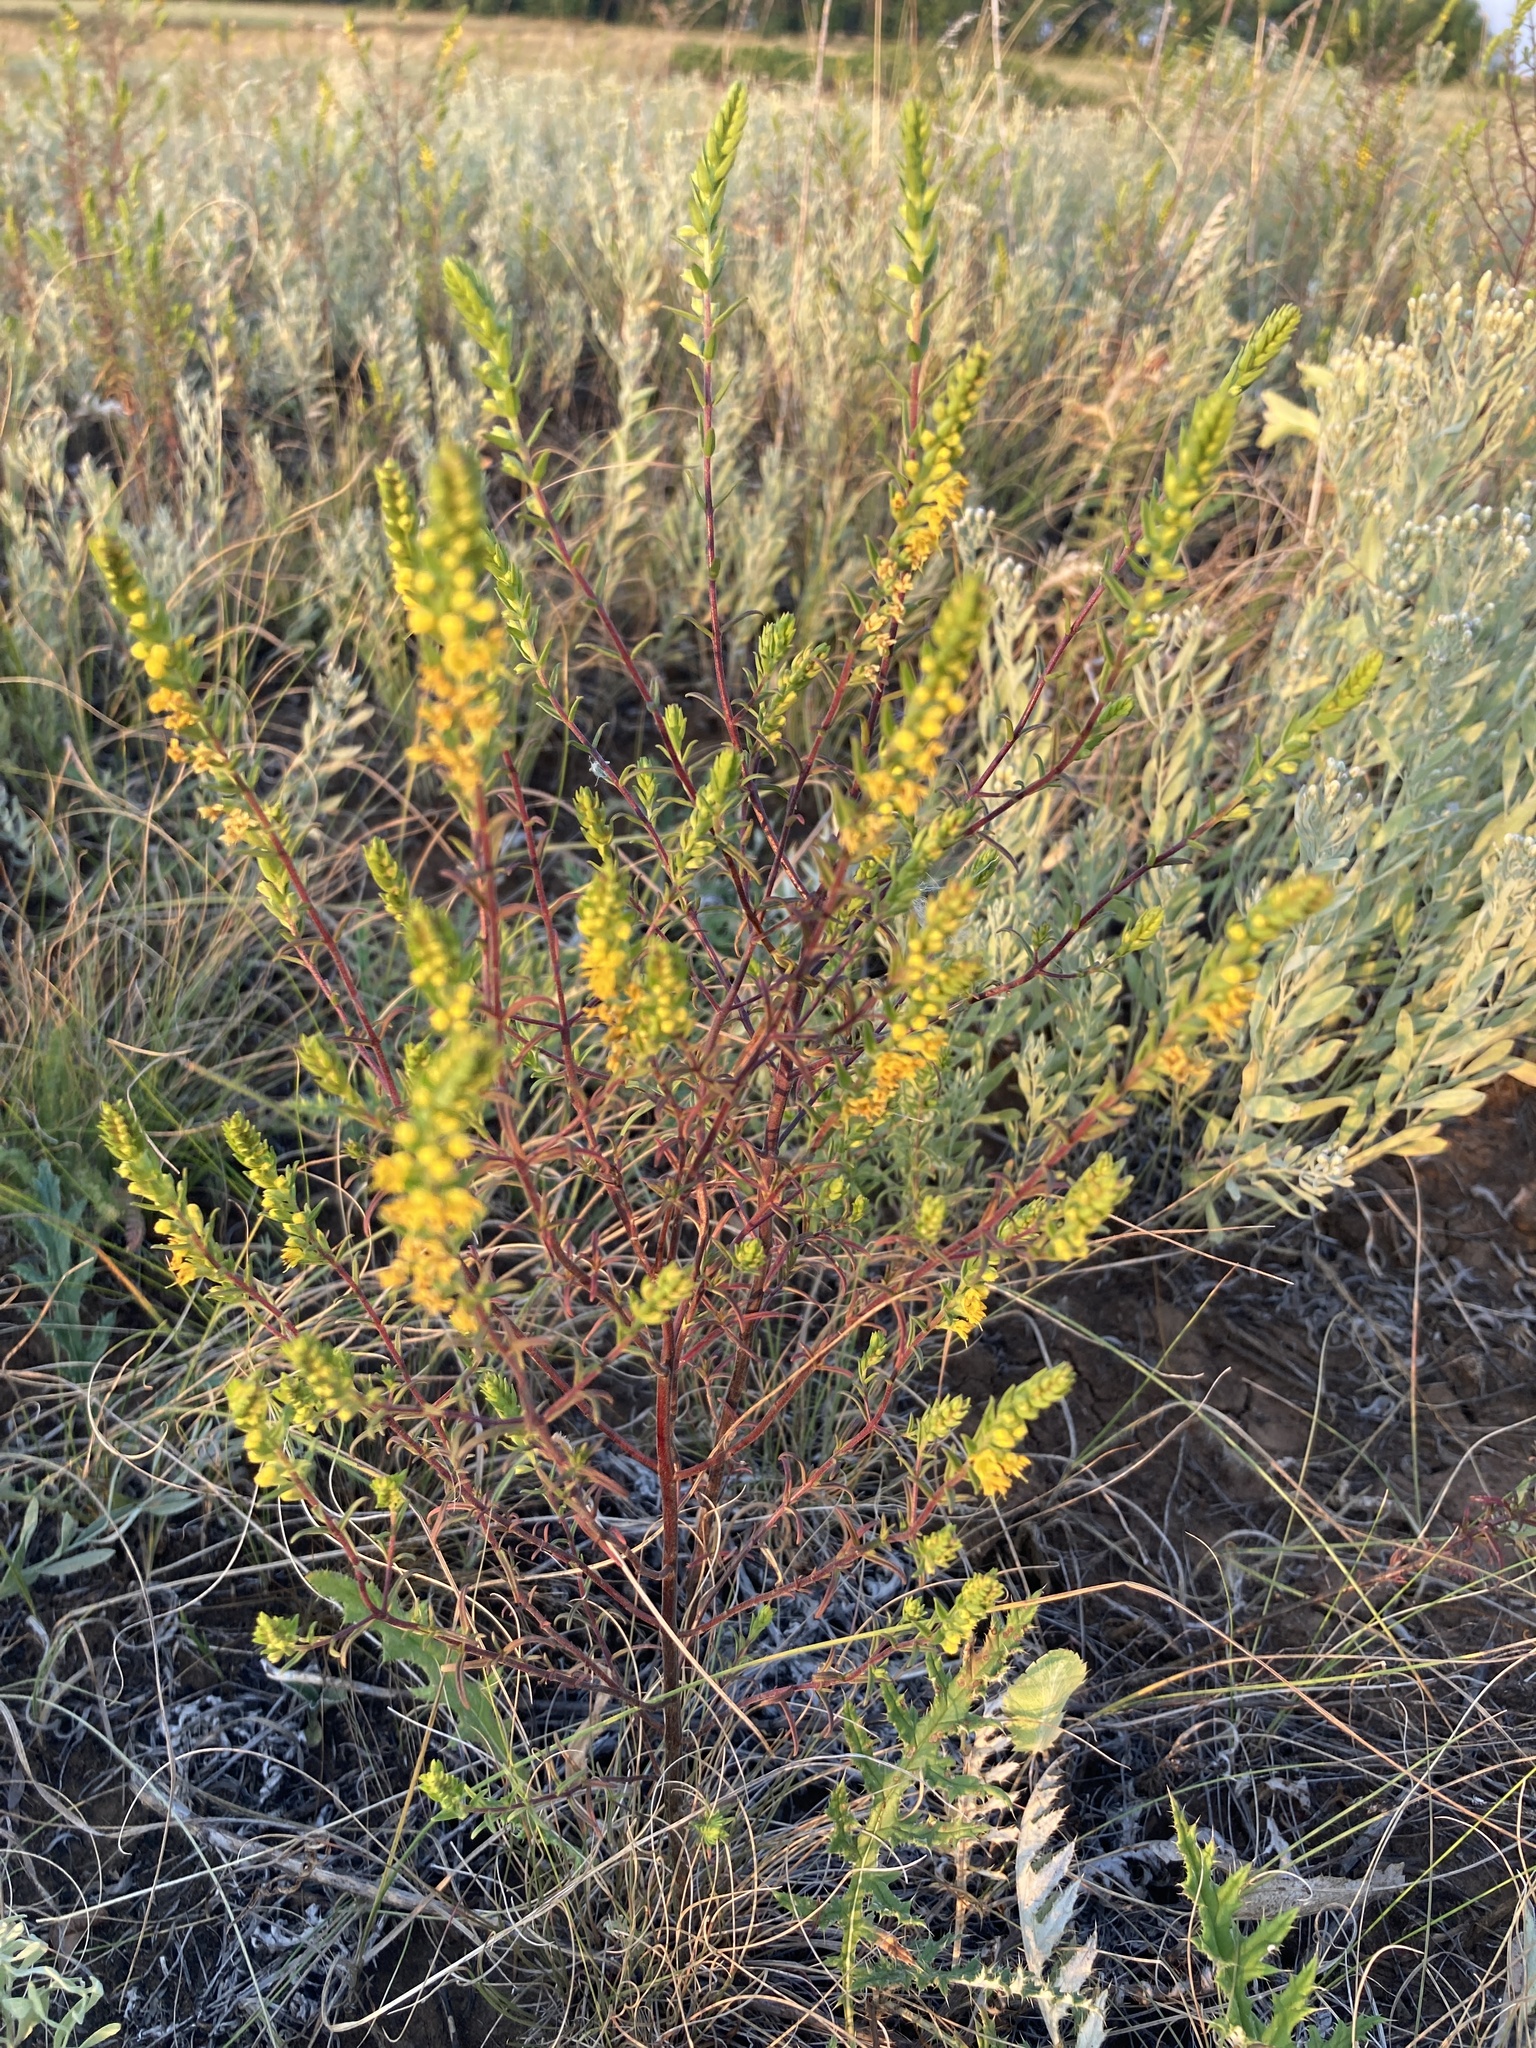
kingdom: Plantae
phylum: Tracheophyta
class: Magnoliopsida
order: Lamiales
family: Orobanchaceae
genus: Odontites
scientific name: Odontites luteus
